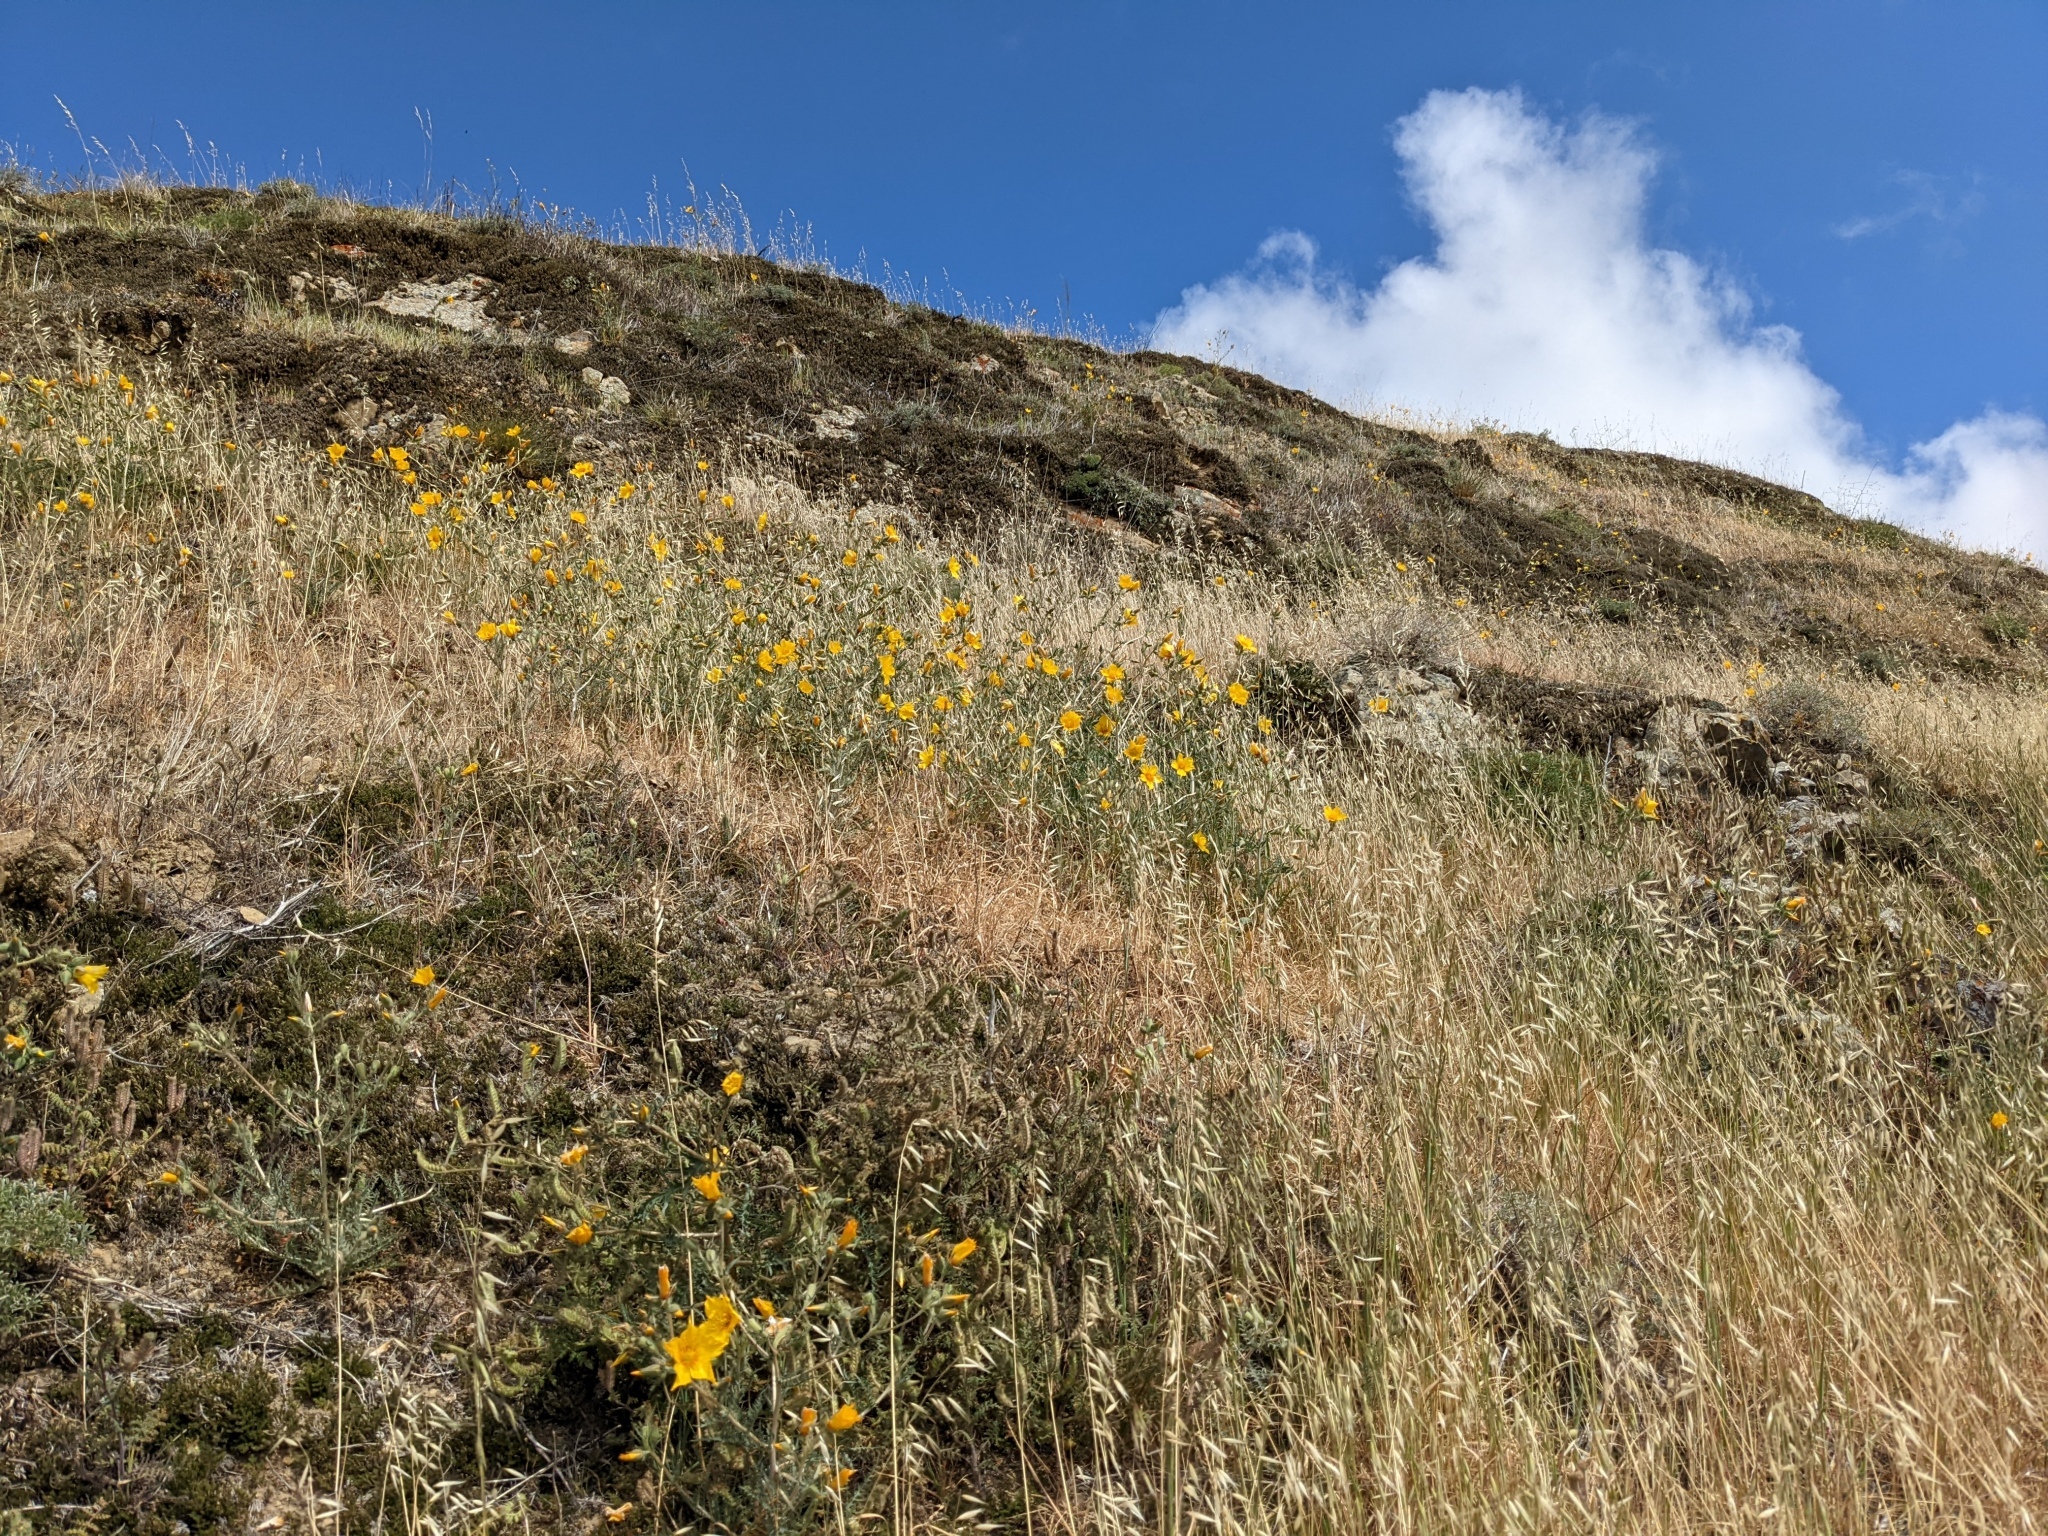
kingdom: Plantae
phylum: Tracheophyta
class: Magnoliopsida
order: Cornales
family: Loasaceae
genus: Mentzelia
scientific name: Mentzelia lindleyi
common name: Golden bartonia
